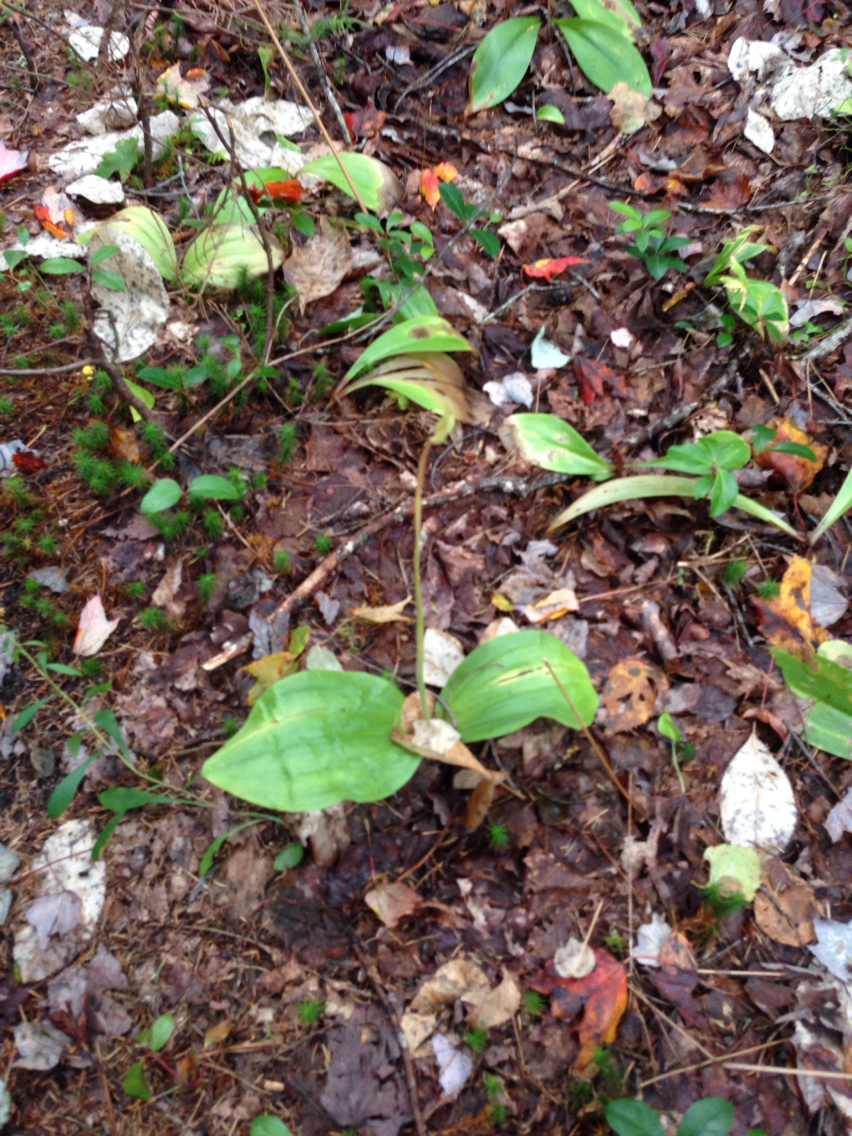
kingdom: Plantae
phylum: Tracheophyta
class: Liliopsida
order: Asparagales
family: Orchidaceae
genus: Cypripedium
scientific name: Cypripedium acaule
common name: Pink lady's-slipper
